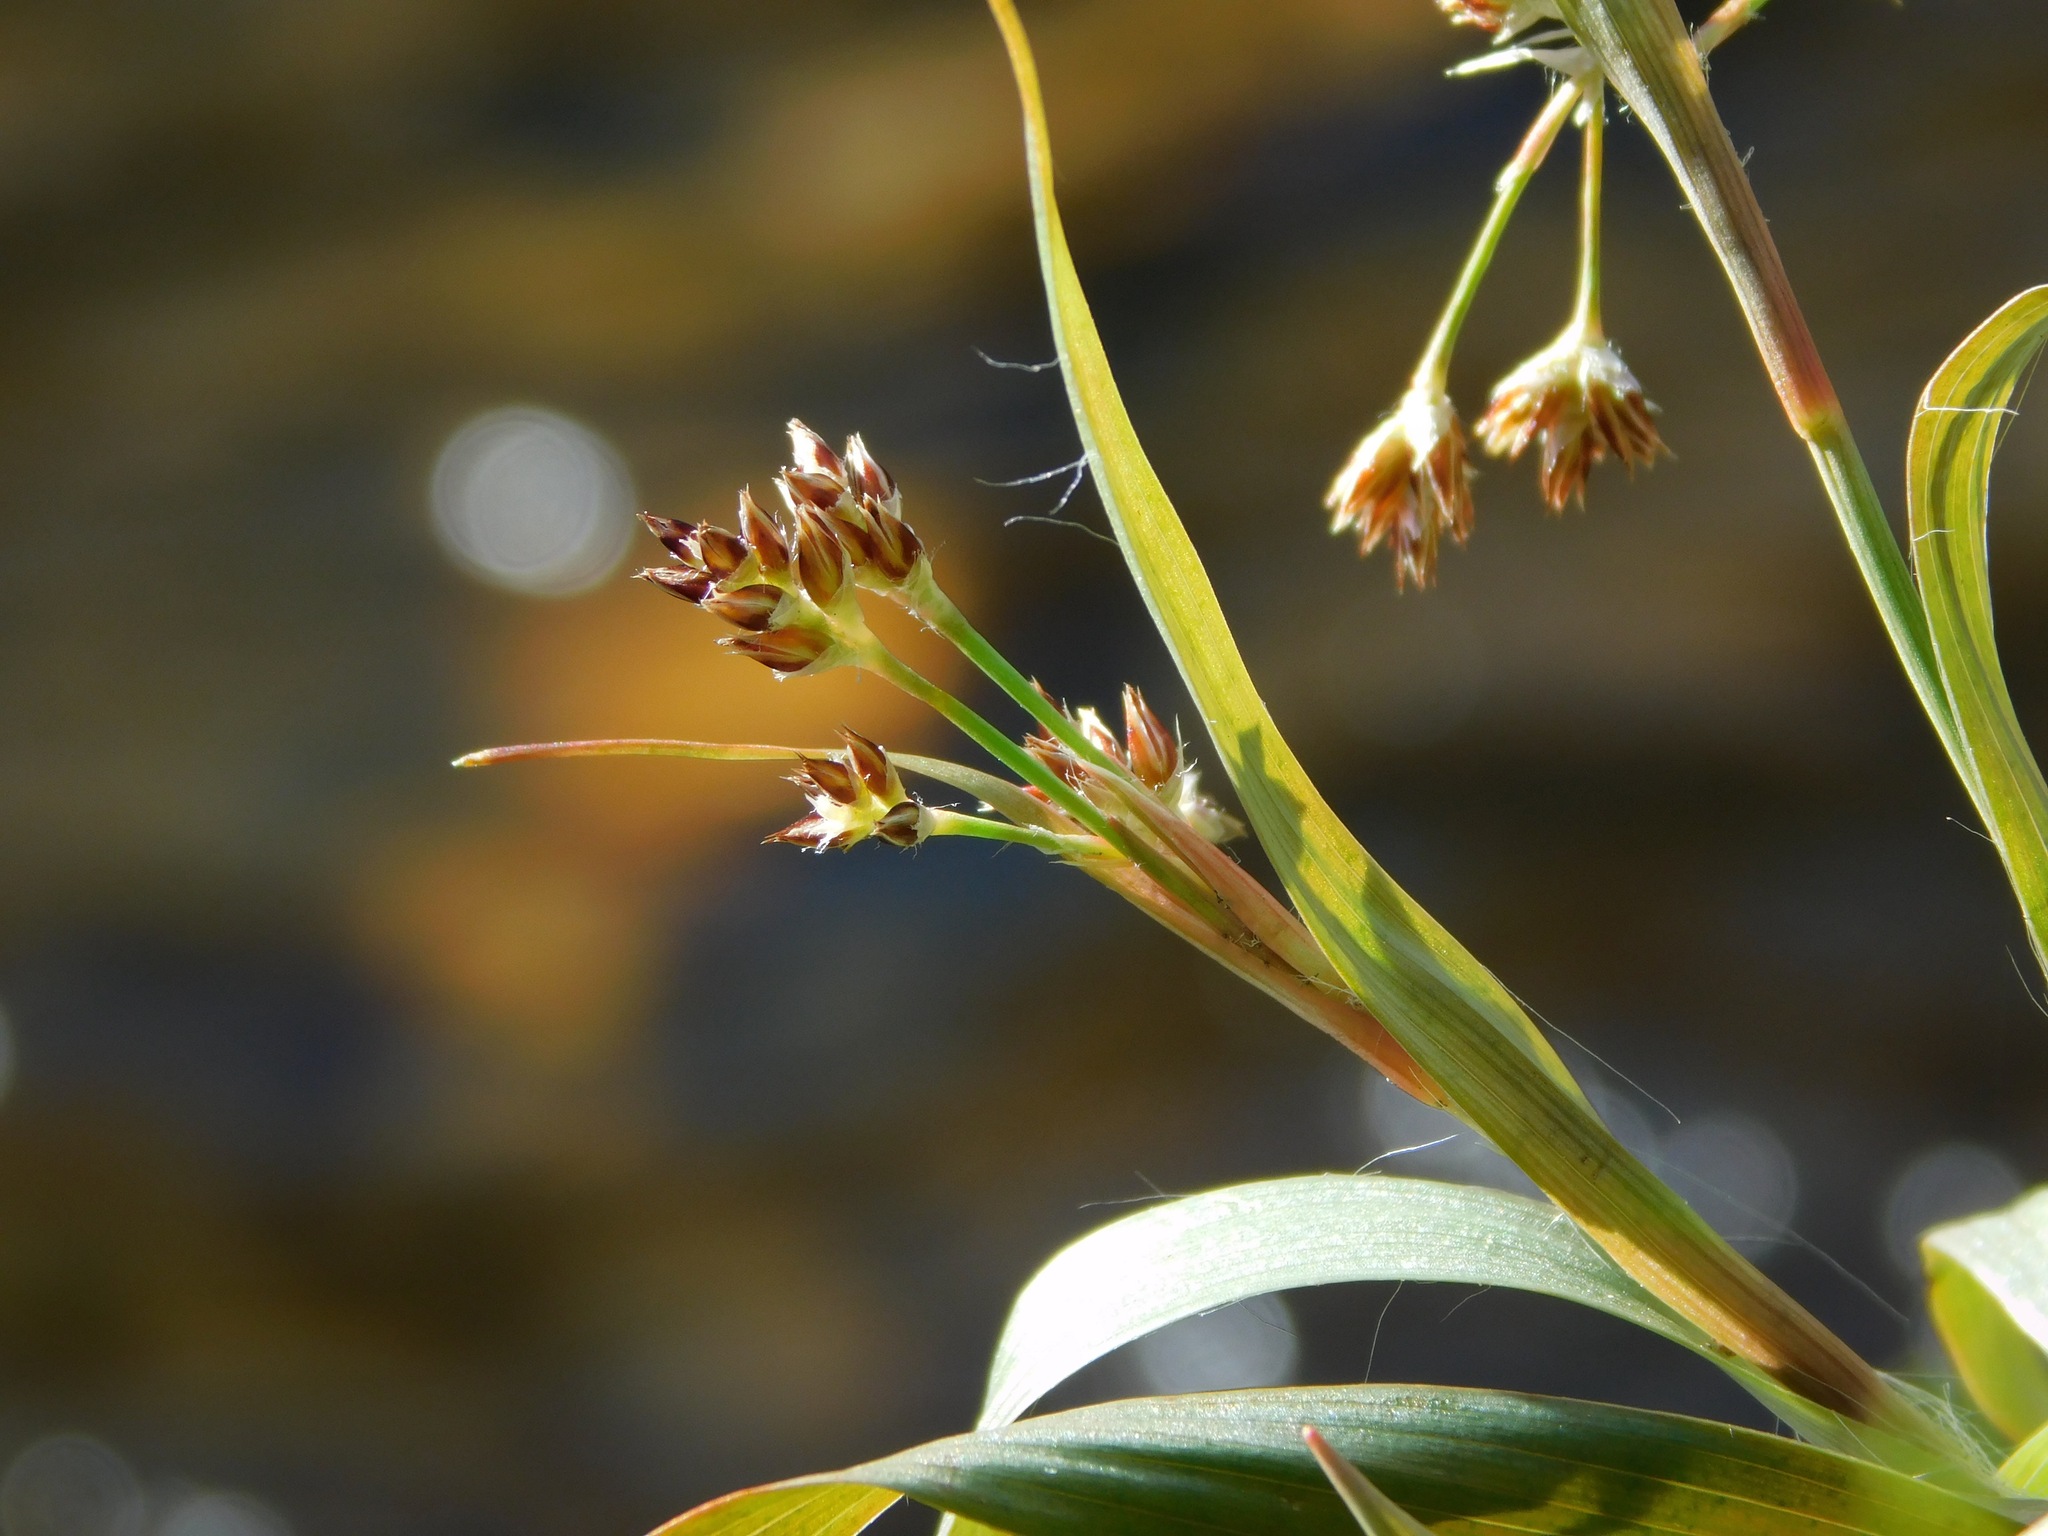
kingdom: Plantae
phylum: Tracheophyta
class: Liliopsida
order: Poales
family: Juncaceae
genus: Luzula
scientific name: Luzula echinata
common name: Hedgehog woodrush
